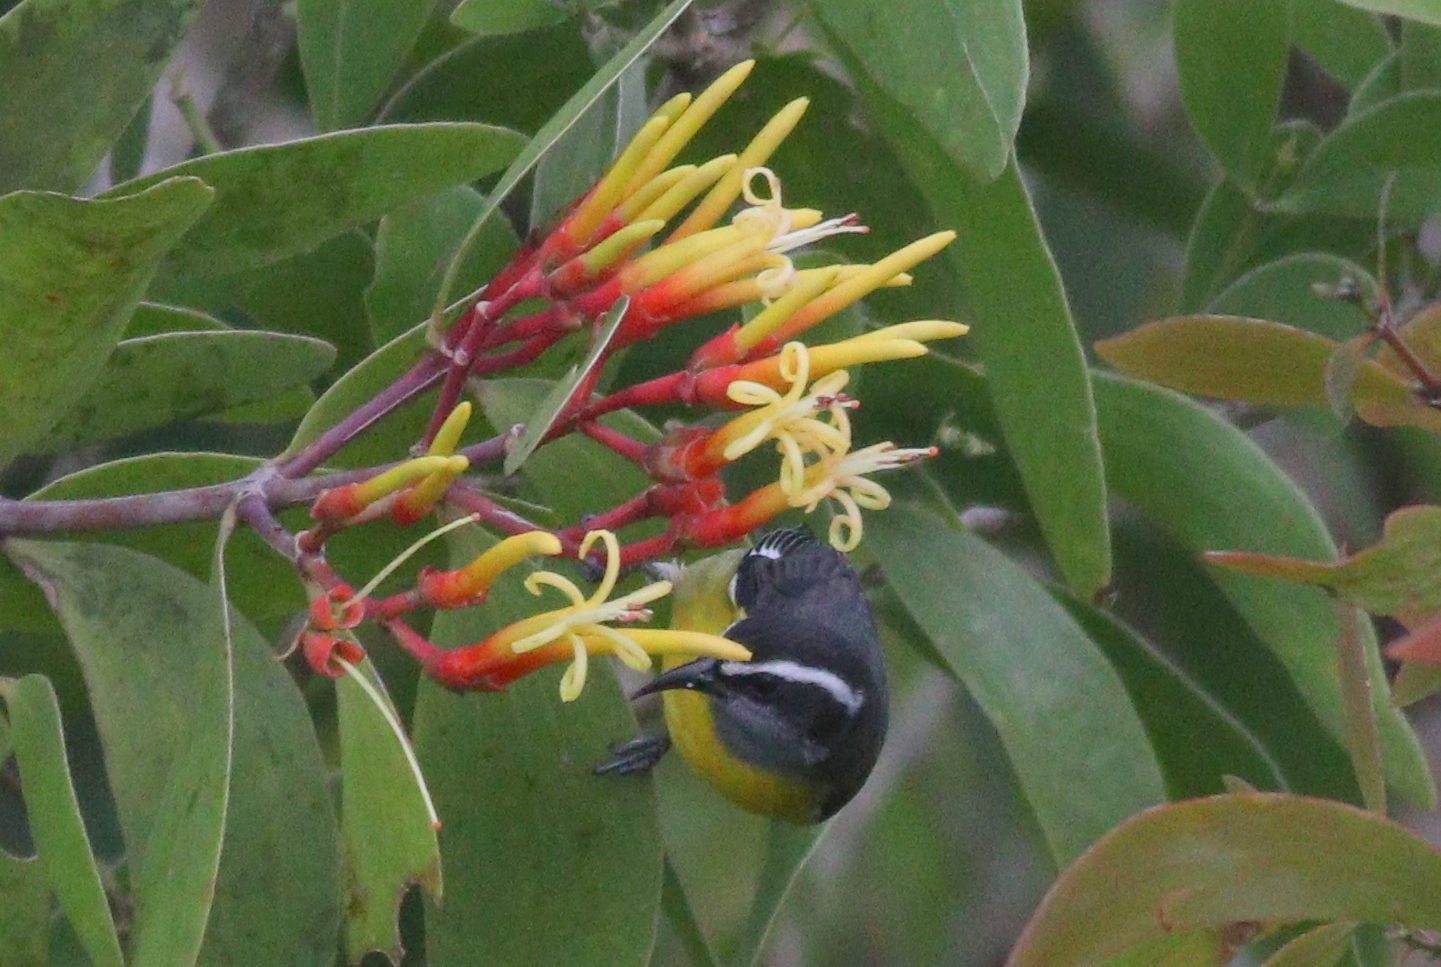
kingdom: Animalia
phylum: Chordata
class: Aves
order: Passeriformes
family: Thraupidae
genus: Coereba
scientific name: Coereba flaveola
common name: Bananaquit
